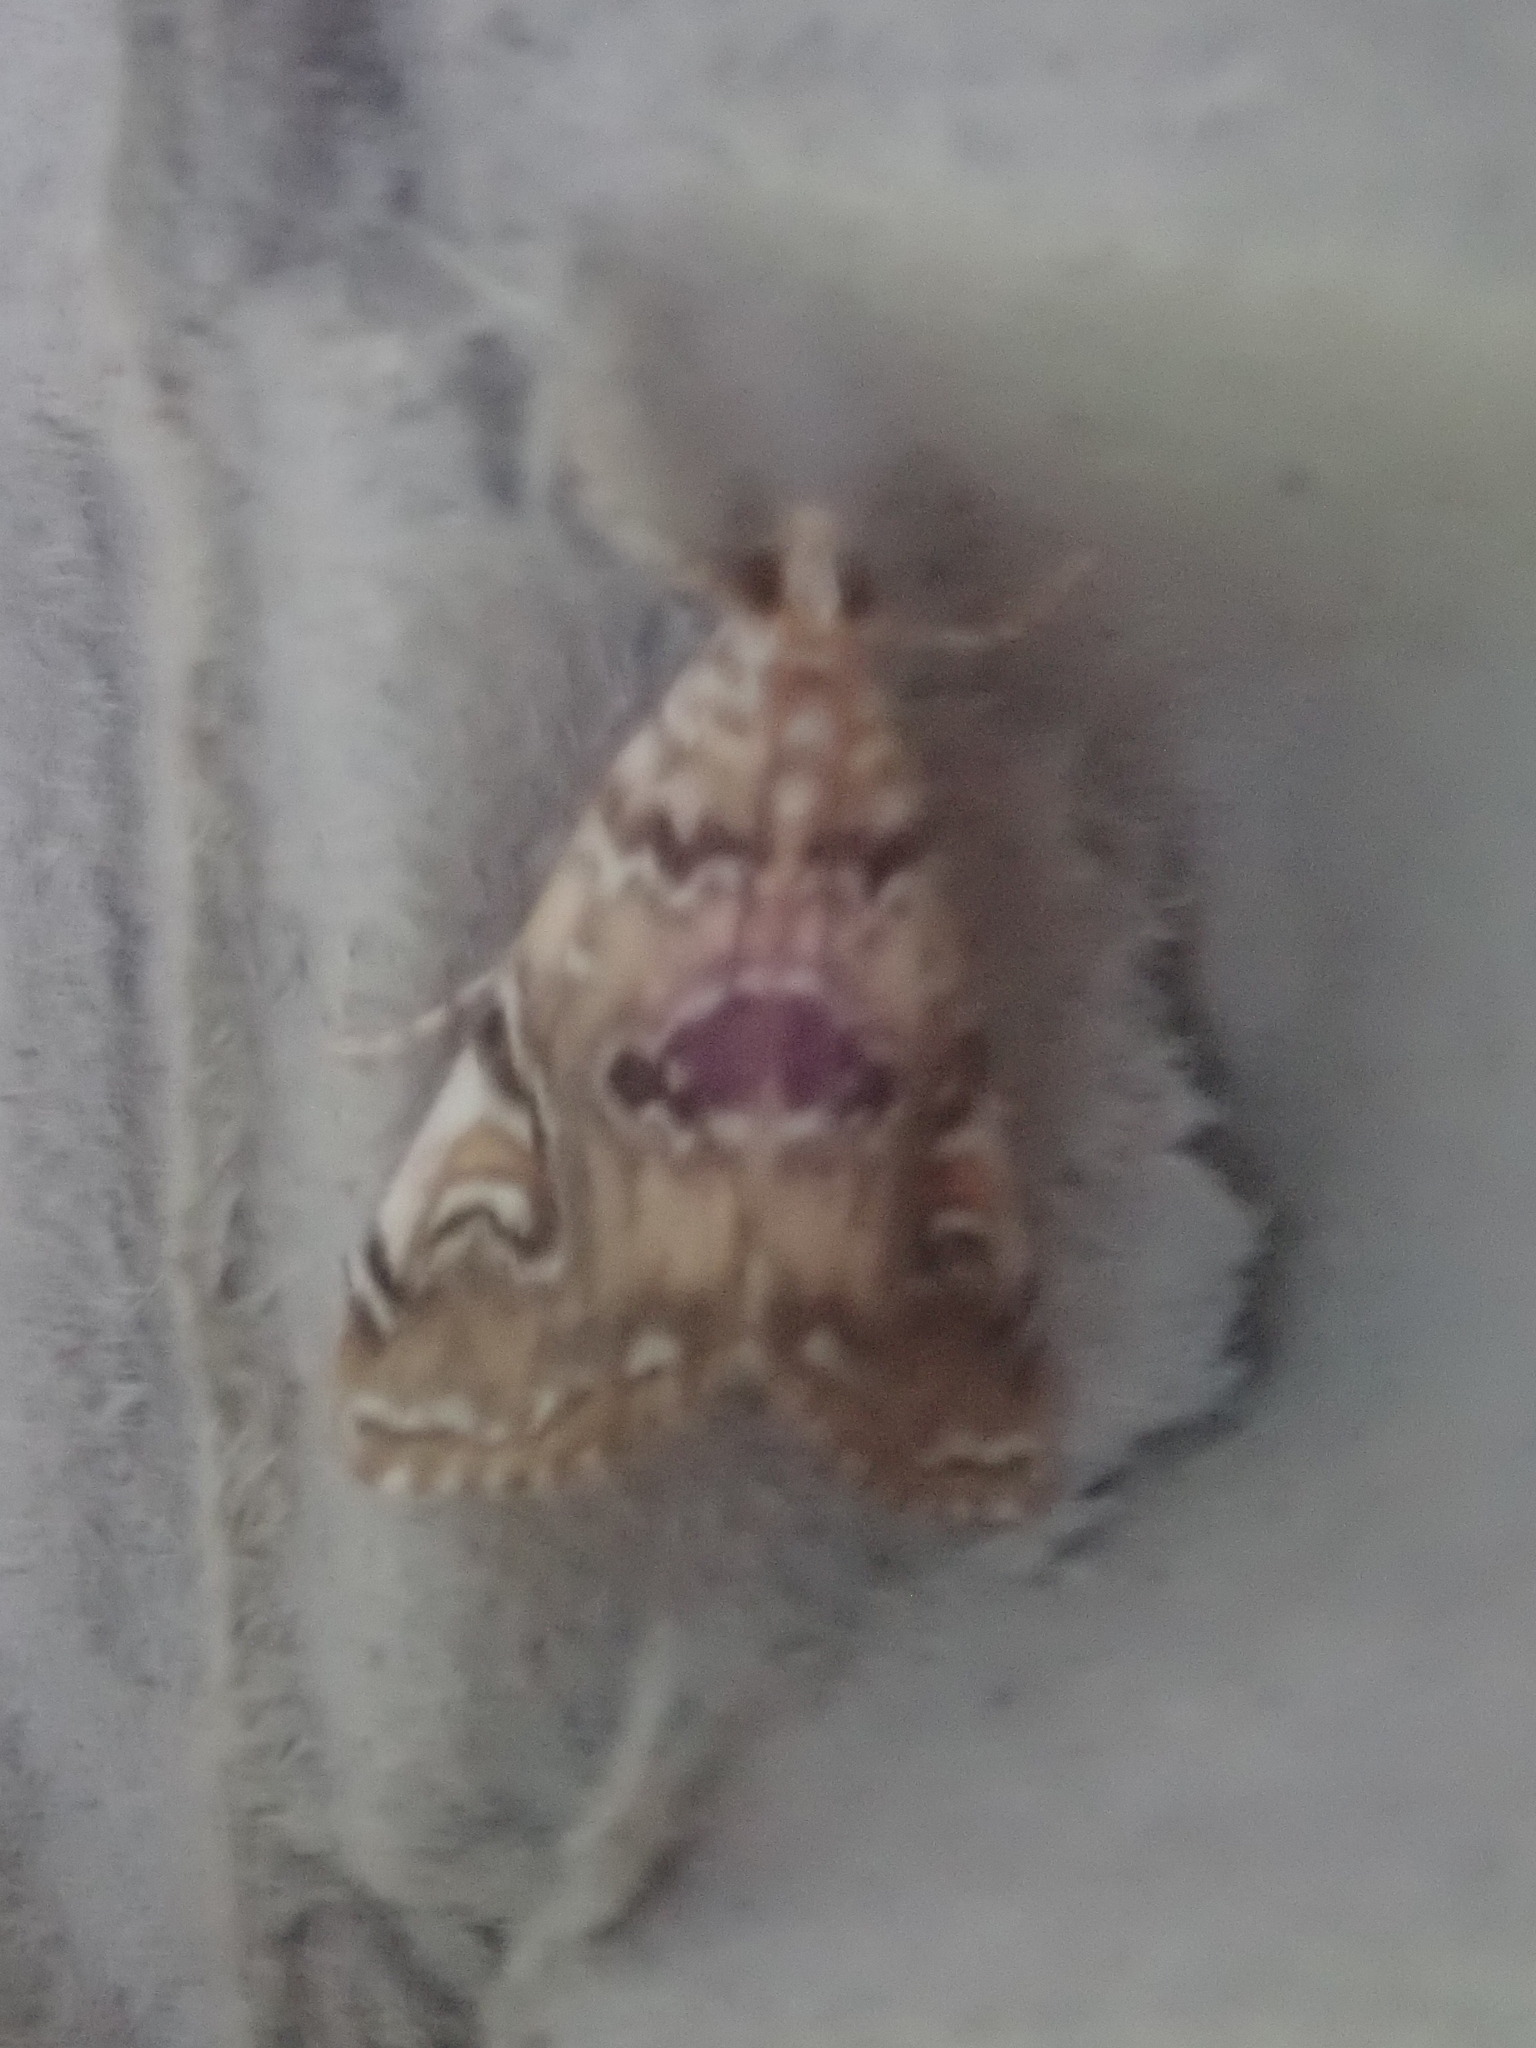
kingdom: Animalia
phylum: Arthropoda
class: Insecta
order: Lepidoptera
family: Crambidae
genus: Elophila
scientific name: Elophila gyralis
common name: Waterlily borer moth
